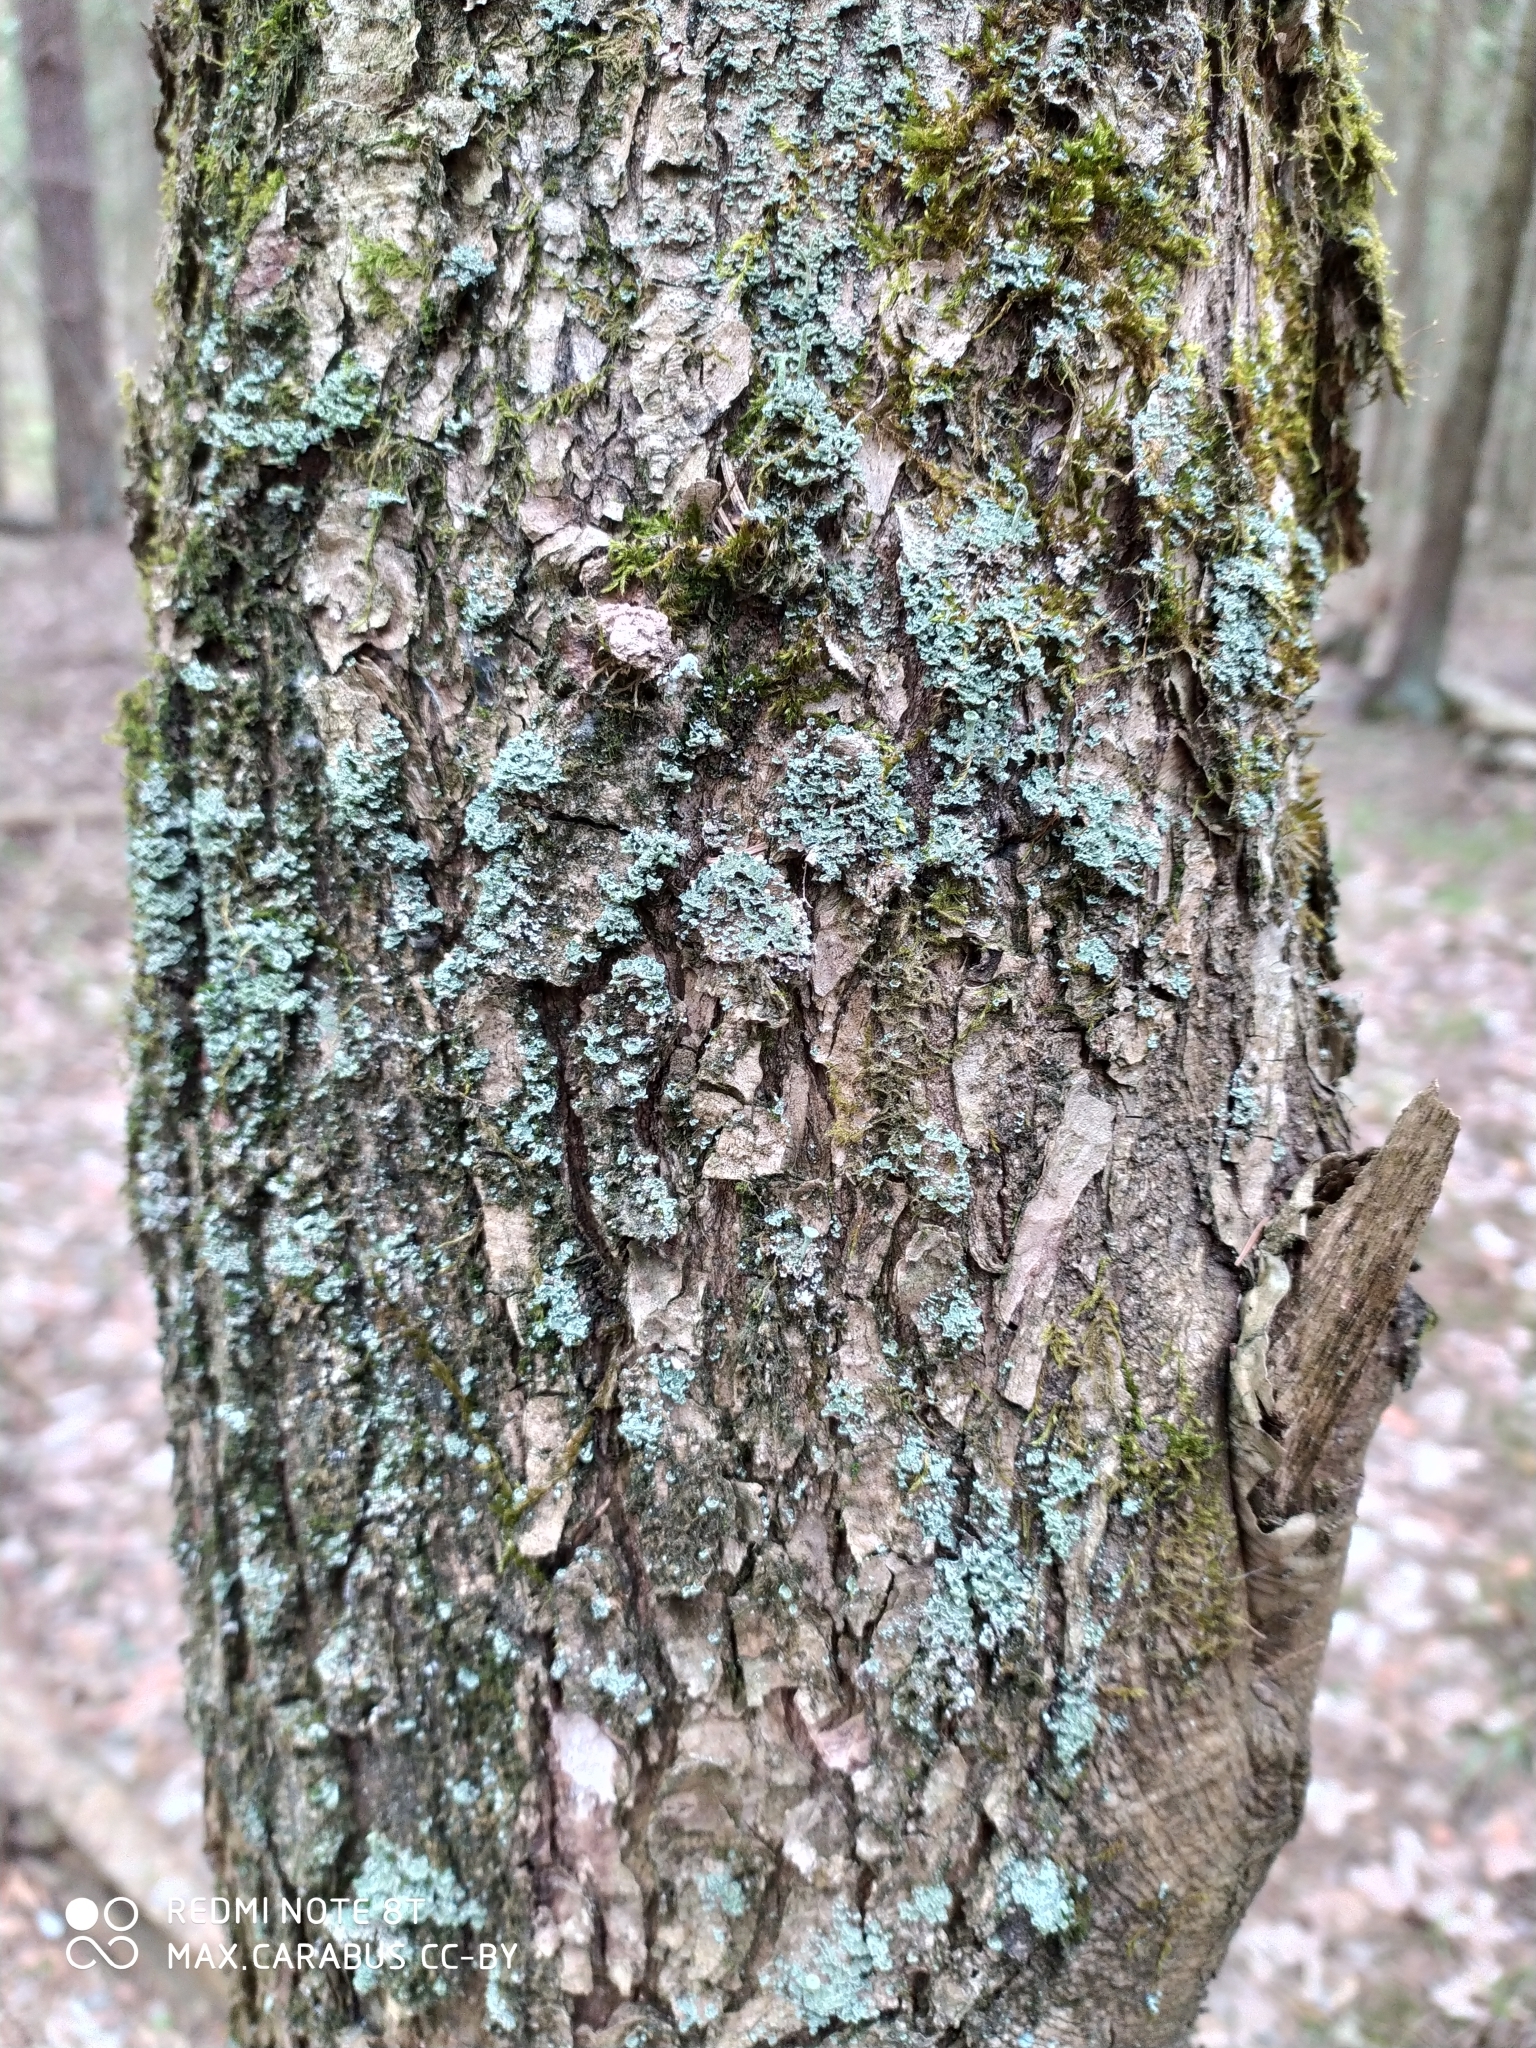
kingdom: Plantae
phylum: Tracheophyta
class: Magnoliopsida
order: Fagales
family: Fagaceae
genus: Quercus
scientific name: Quercus robur
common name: Pedunculate oak
